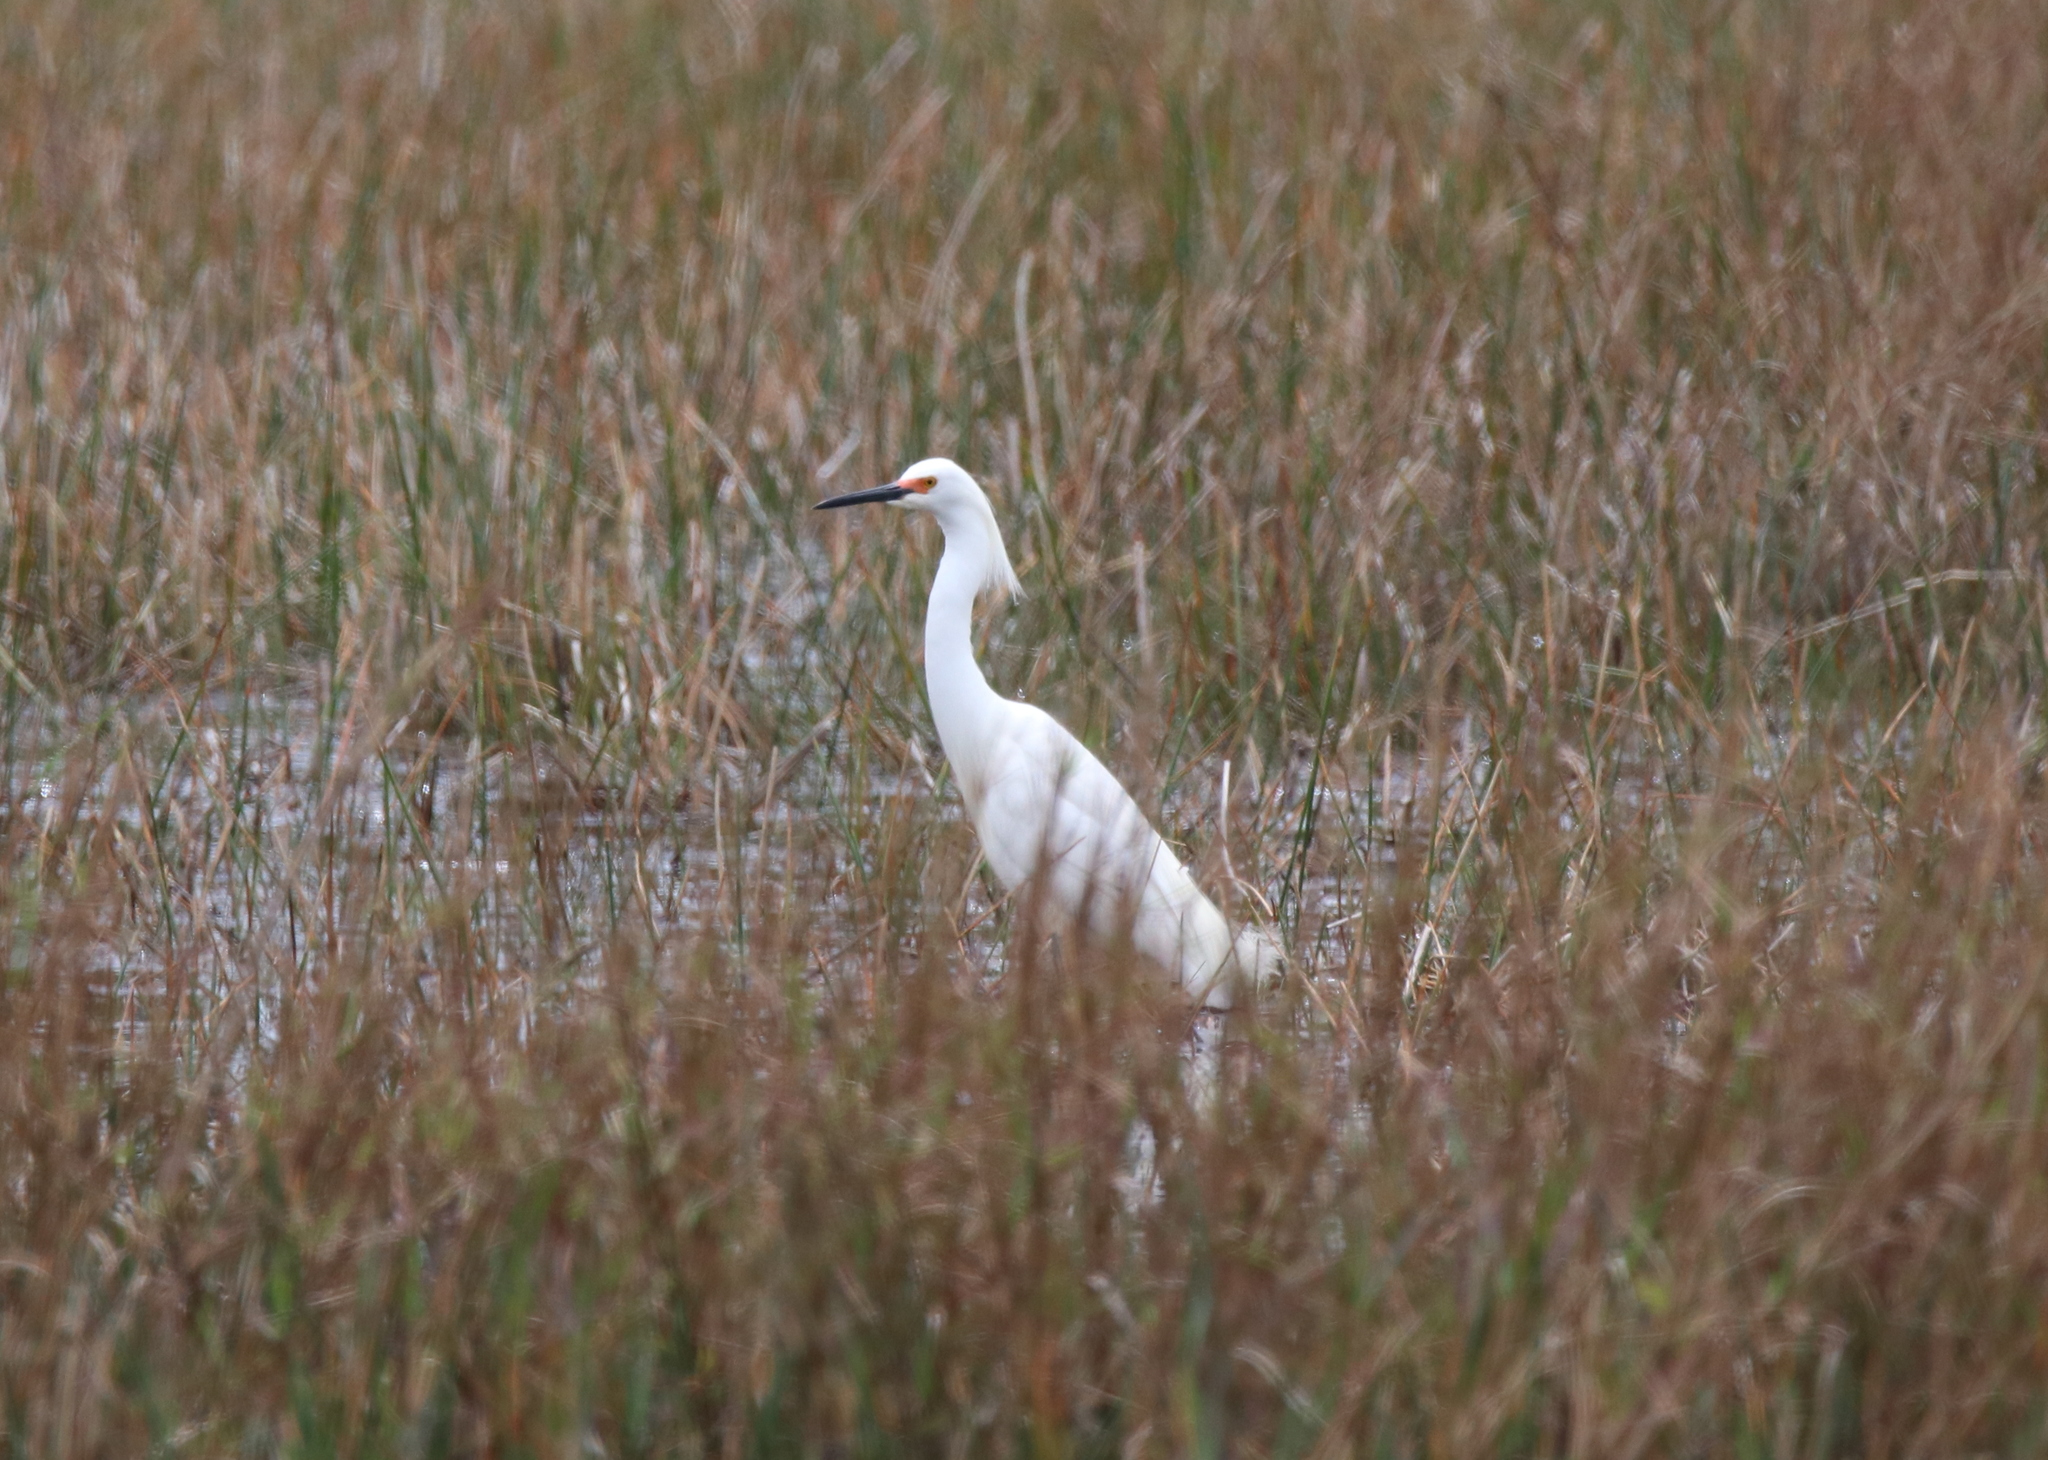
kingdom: Animalia
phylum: Chordata
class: Aves
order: Pelecaniformes
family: Ardeidae
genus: Egretta
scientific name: Egretta thula
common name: Snowy egret
